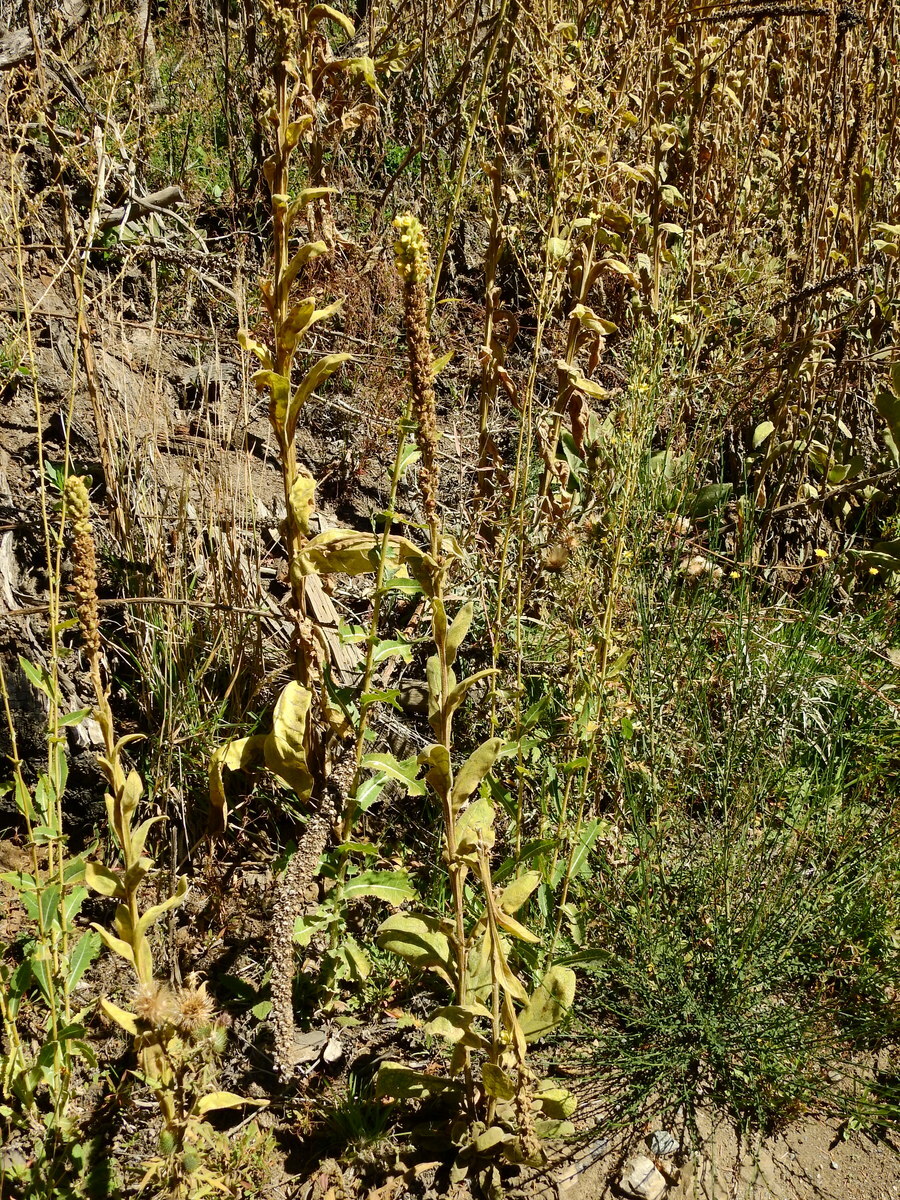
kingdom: Plantae
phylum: Tracheophyta
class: Magnoliopsida
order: Lamiales
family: Scrophulariaceae
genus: Verbascum
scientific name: Verbascum thapsus
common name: Common mullein
